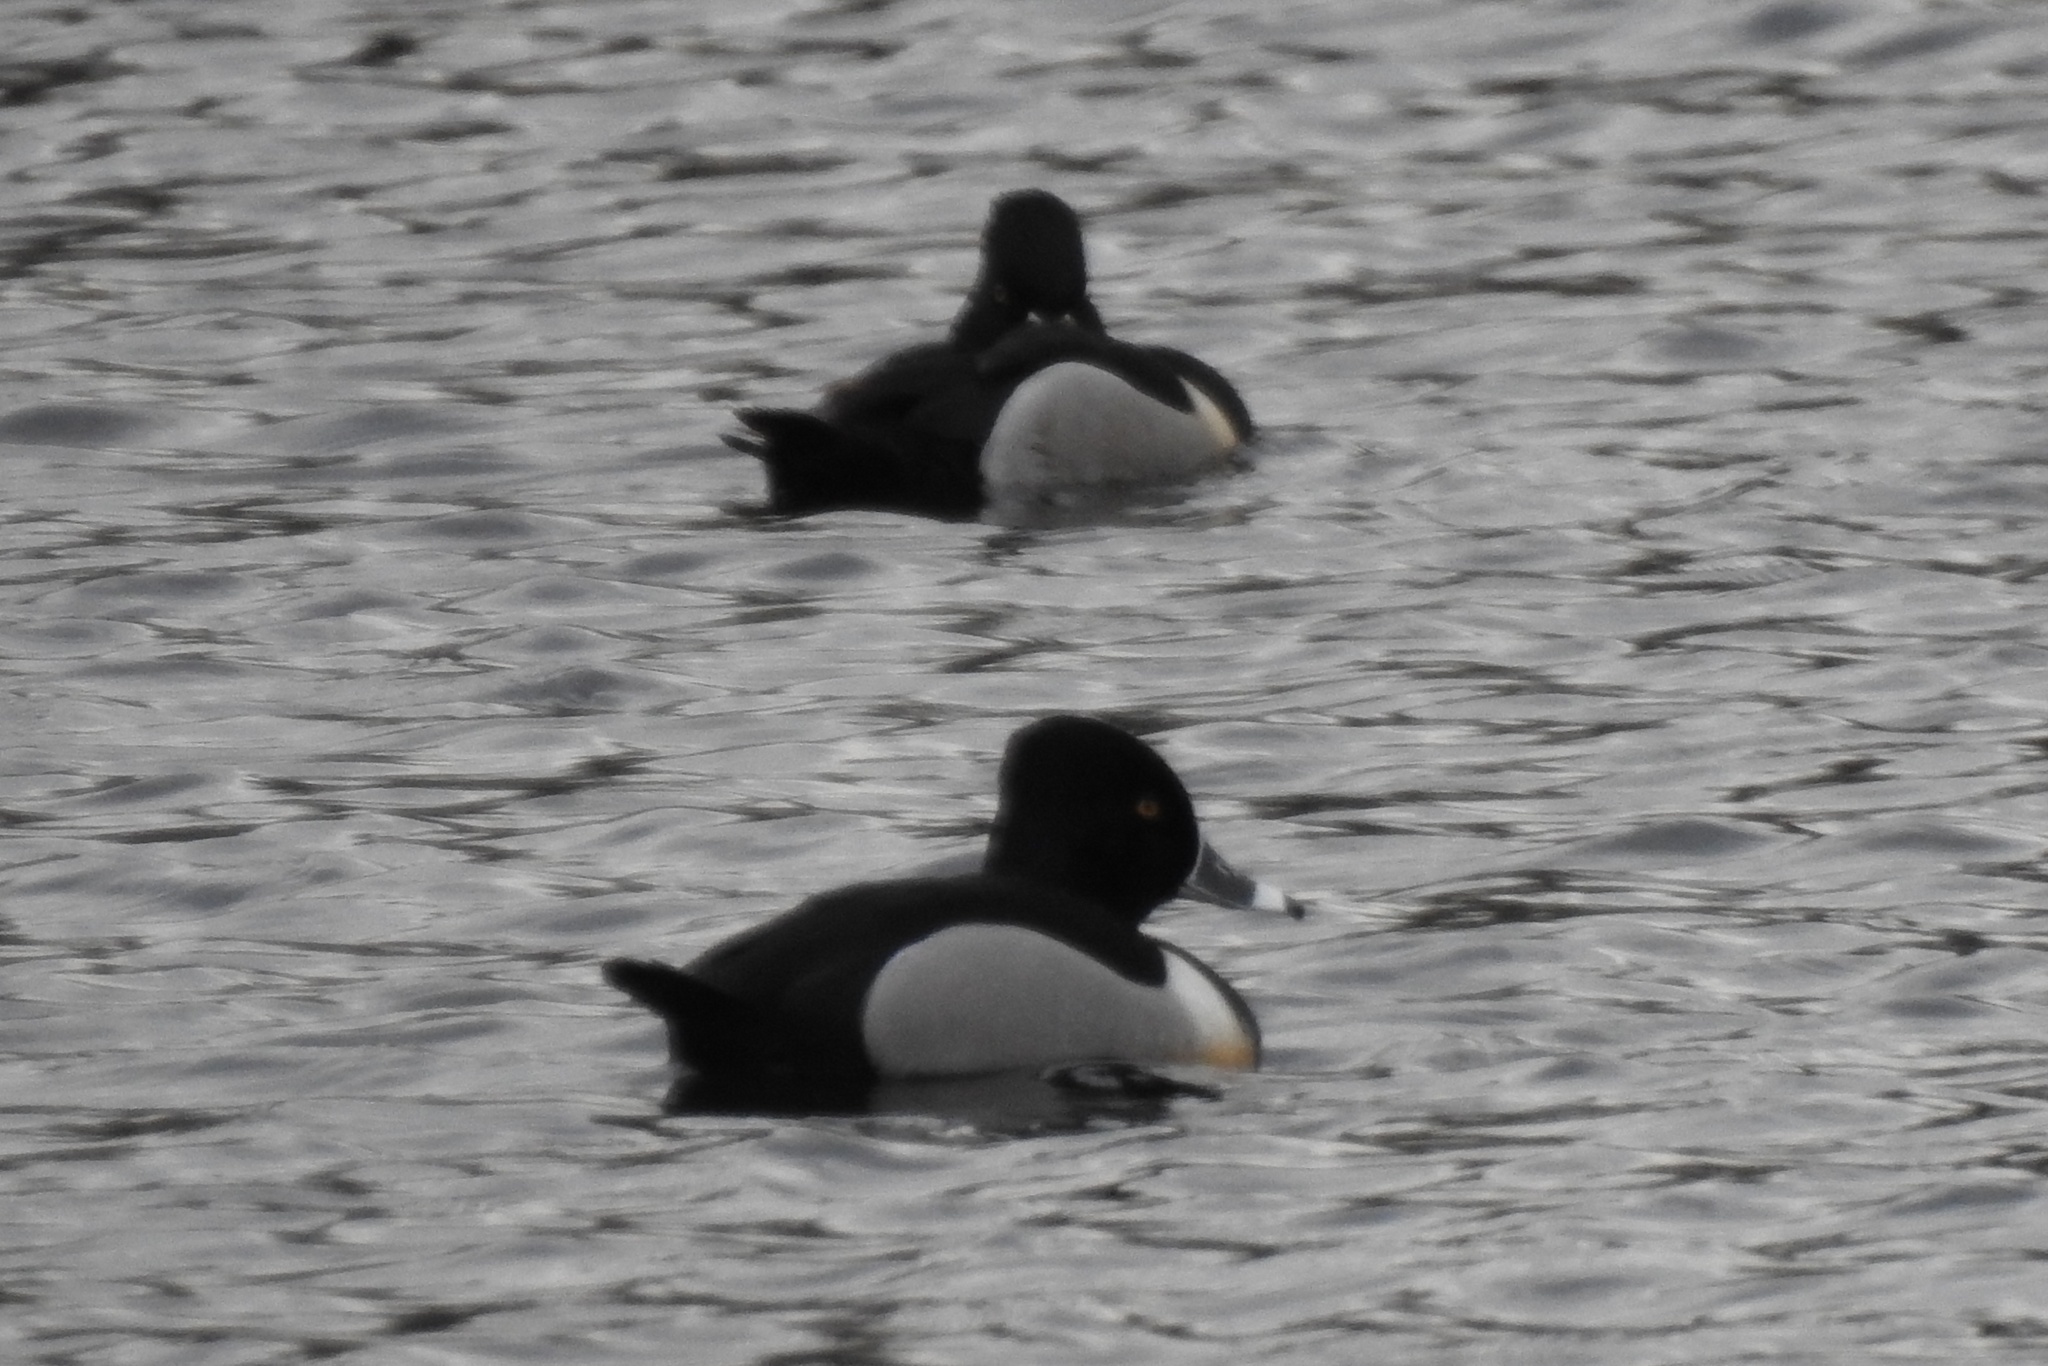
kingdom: Animalia
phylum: Chordata
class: Aves
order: Anseriformes
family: Anatidae
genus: Aythya
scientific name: Aythya collaris
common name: Ring-necked duck
